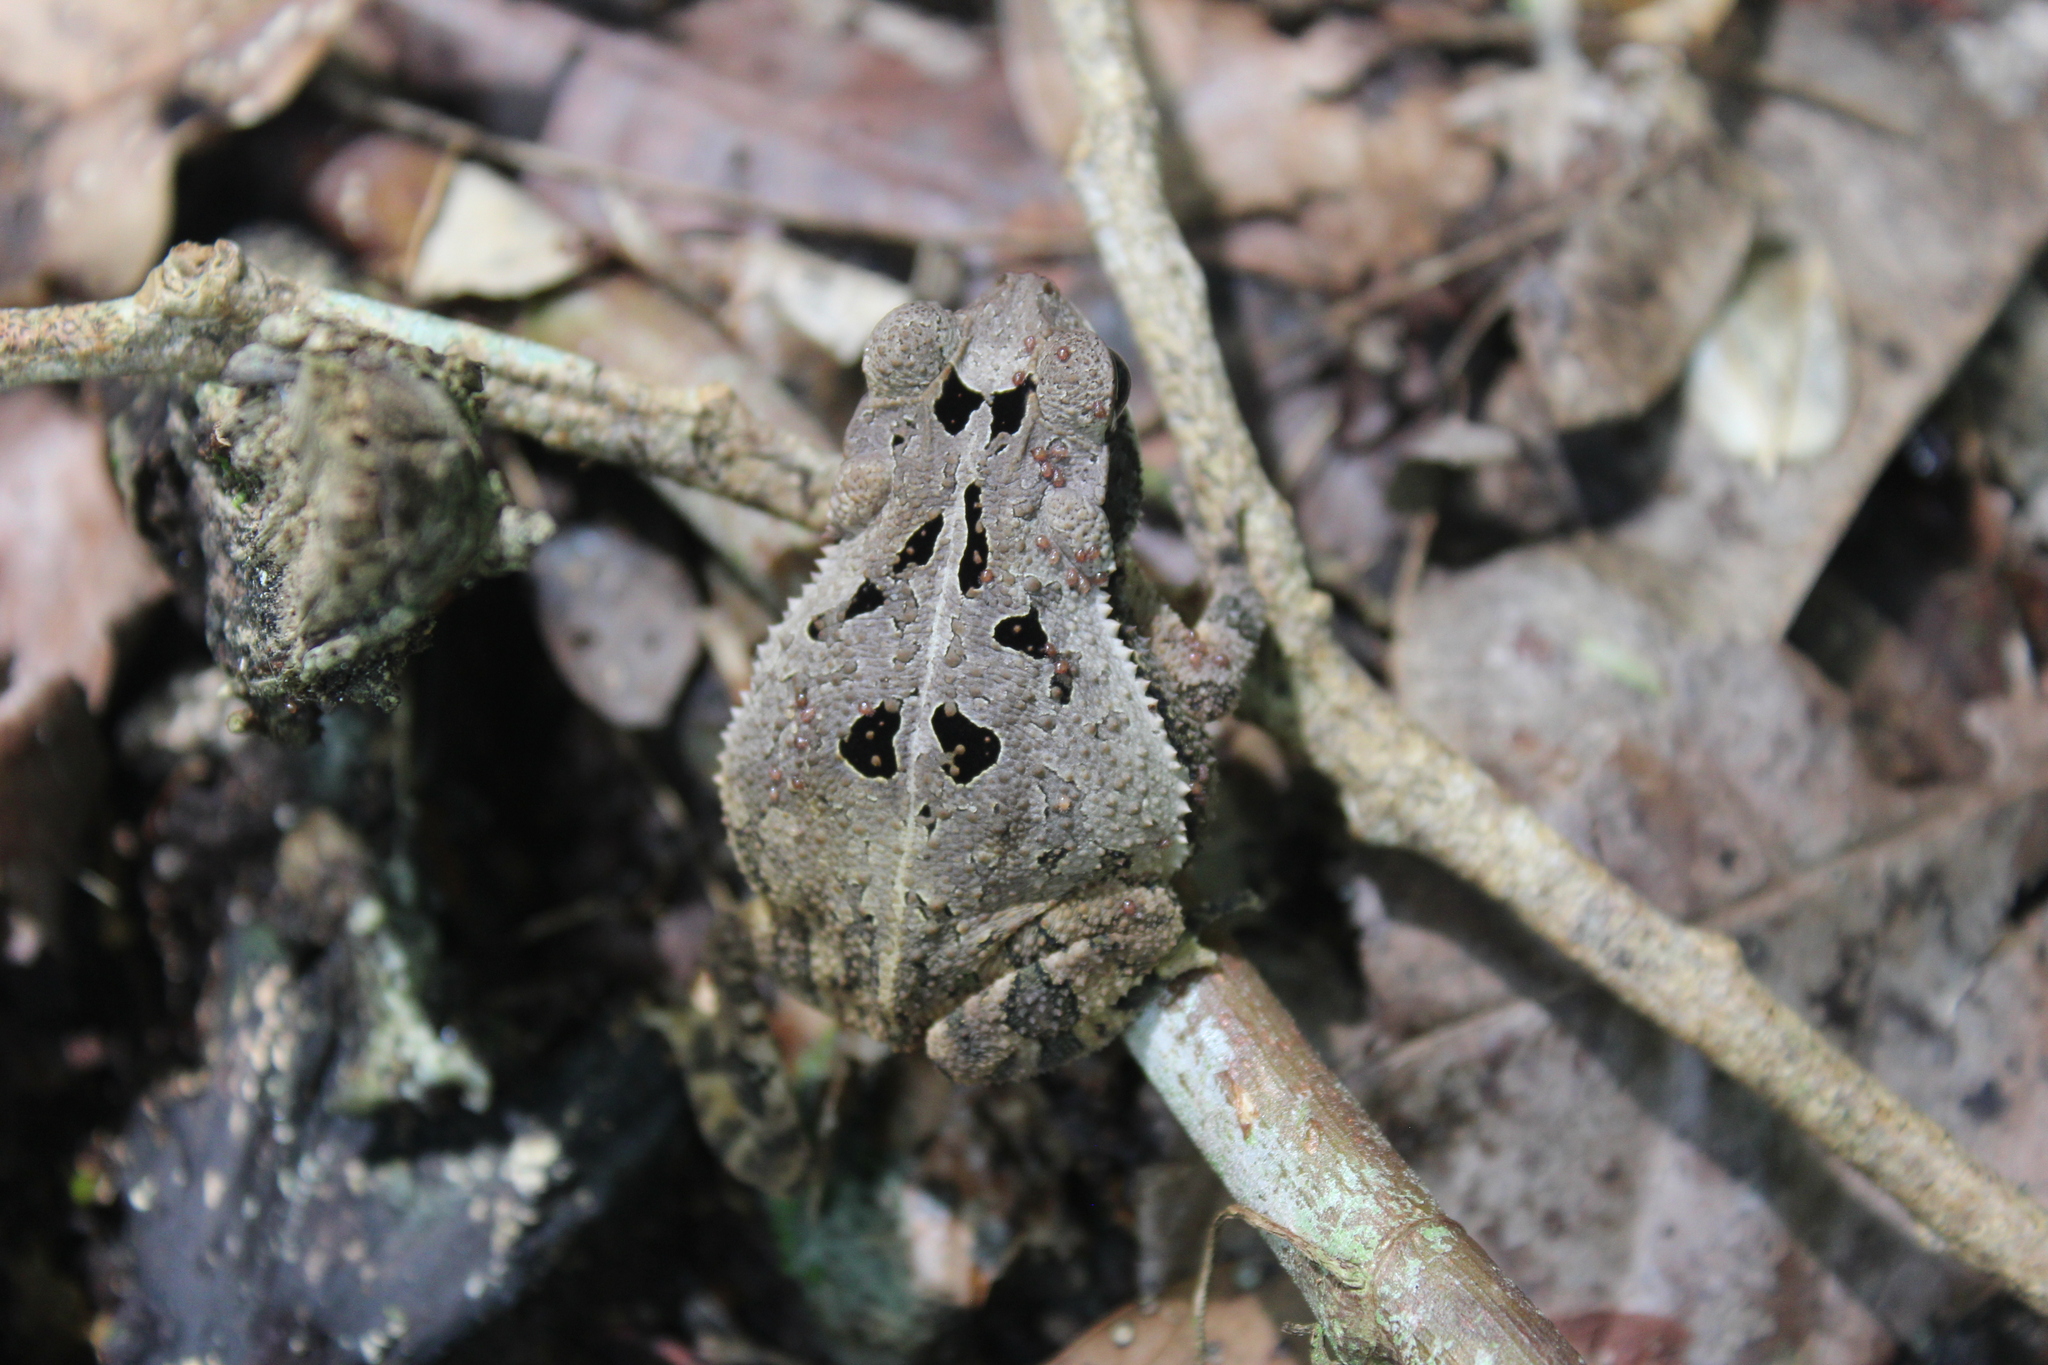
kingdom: Animalia
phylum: Chordata
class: Amphibia
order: Anura
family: Bufonidae
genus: Incilius
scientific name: Incilius valliceps
